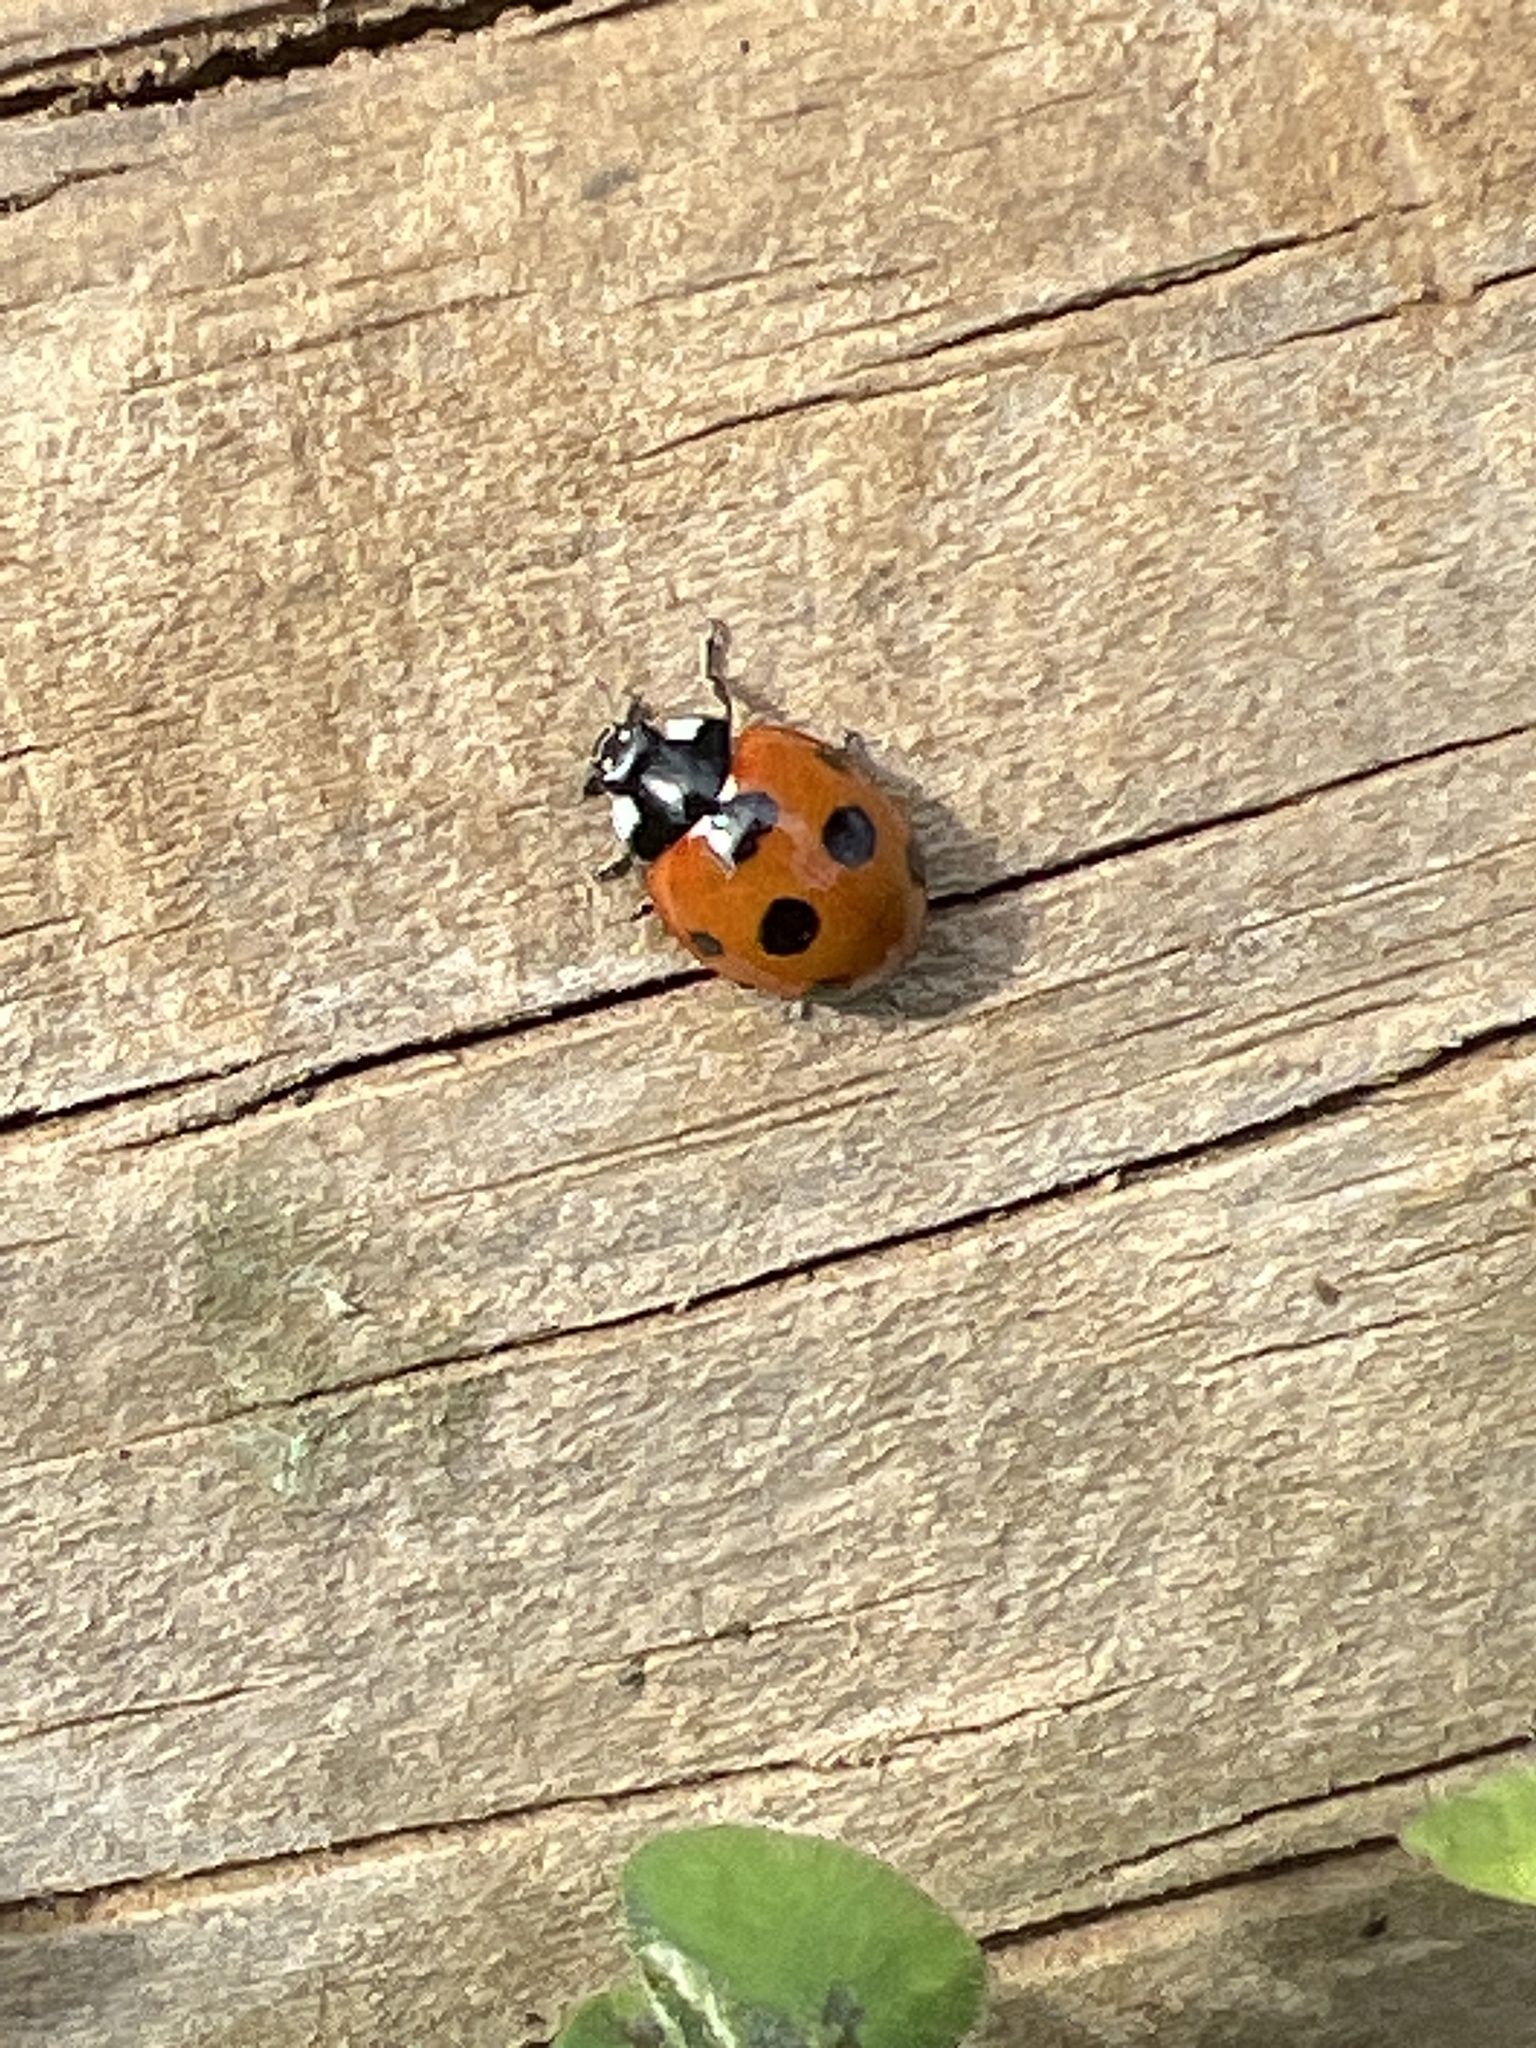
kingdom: Animalia
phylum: Arthropoda
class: Insecta
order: Coleoptera
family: Coccinellidae
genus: Coccinella
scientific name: Coccinella algerica
